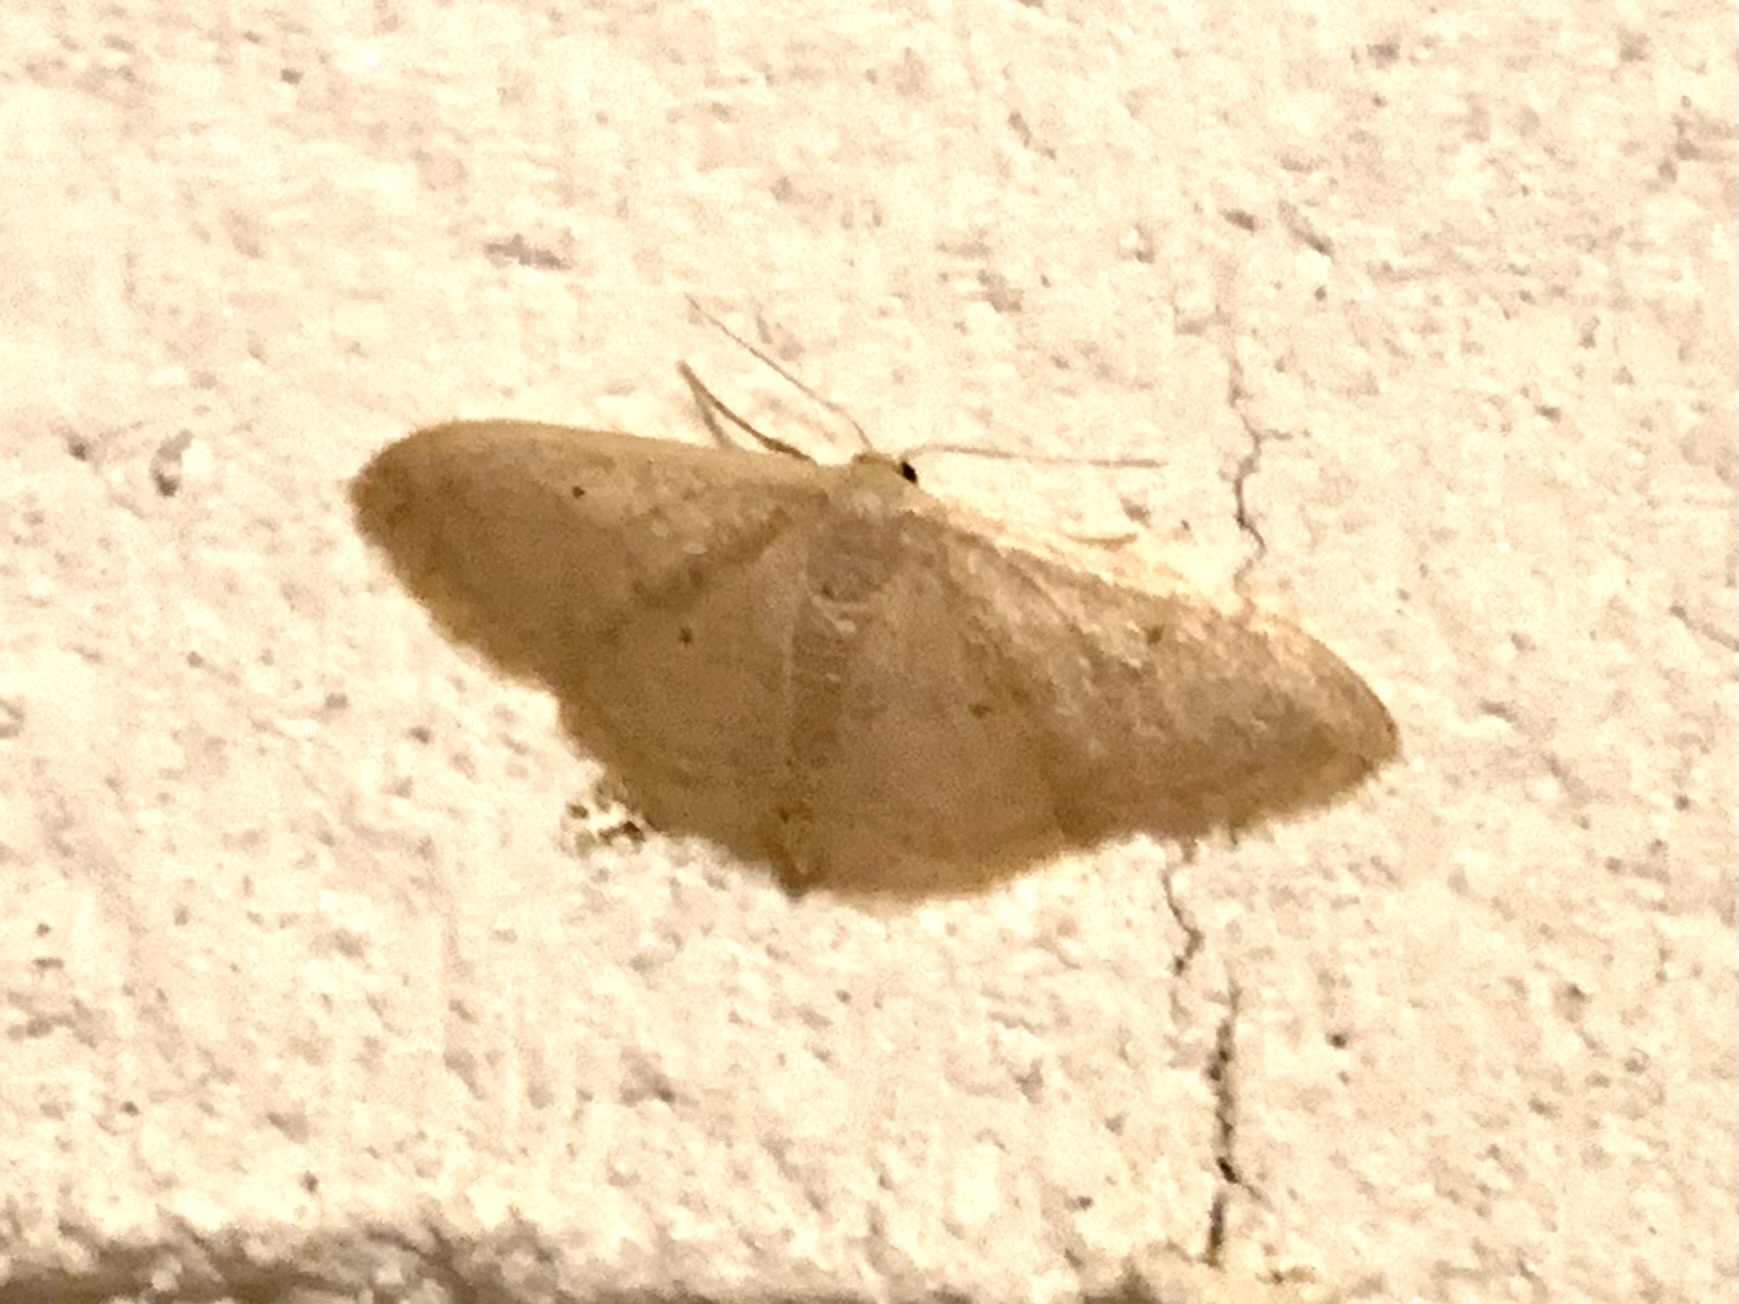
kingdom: Animalia
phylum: Arthropoda
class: Insecta
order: Lepidoptera
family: Geometridae
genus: Idaea
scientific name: Idaea distinctaria
